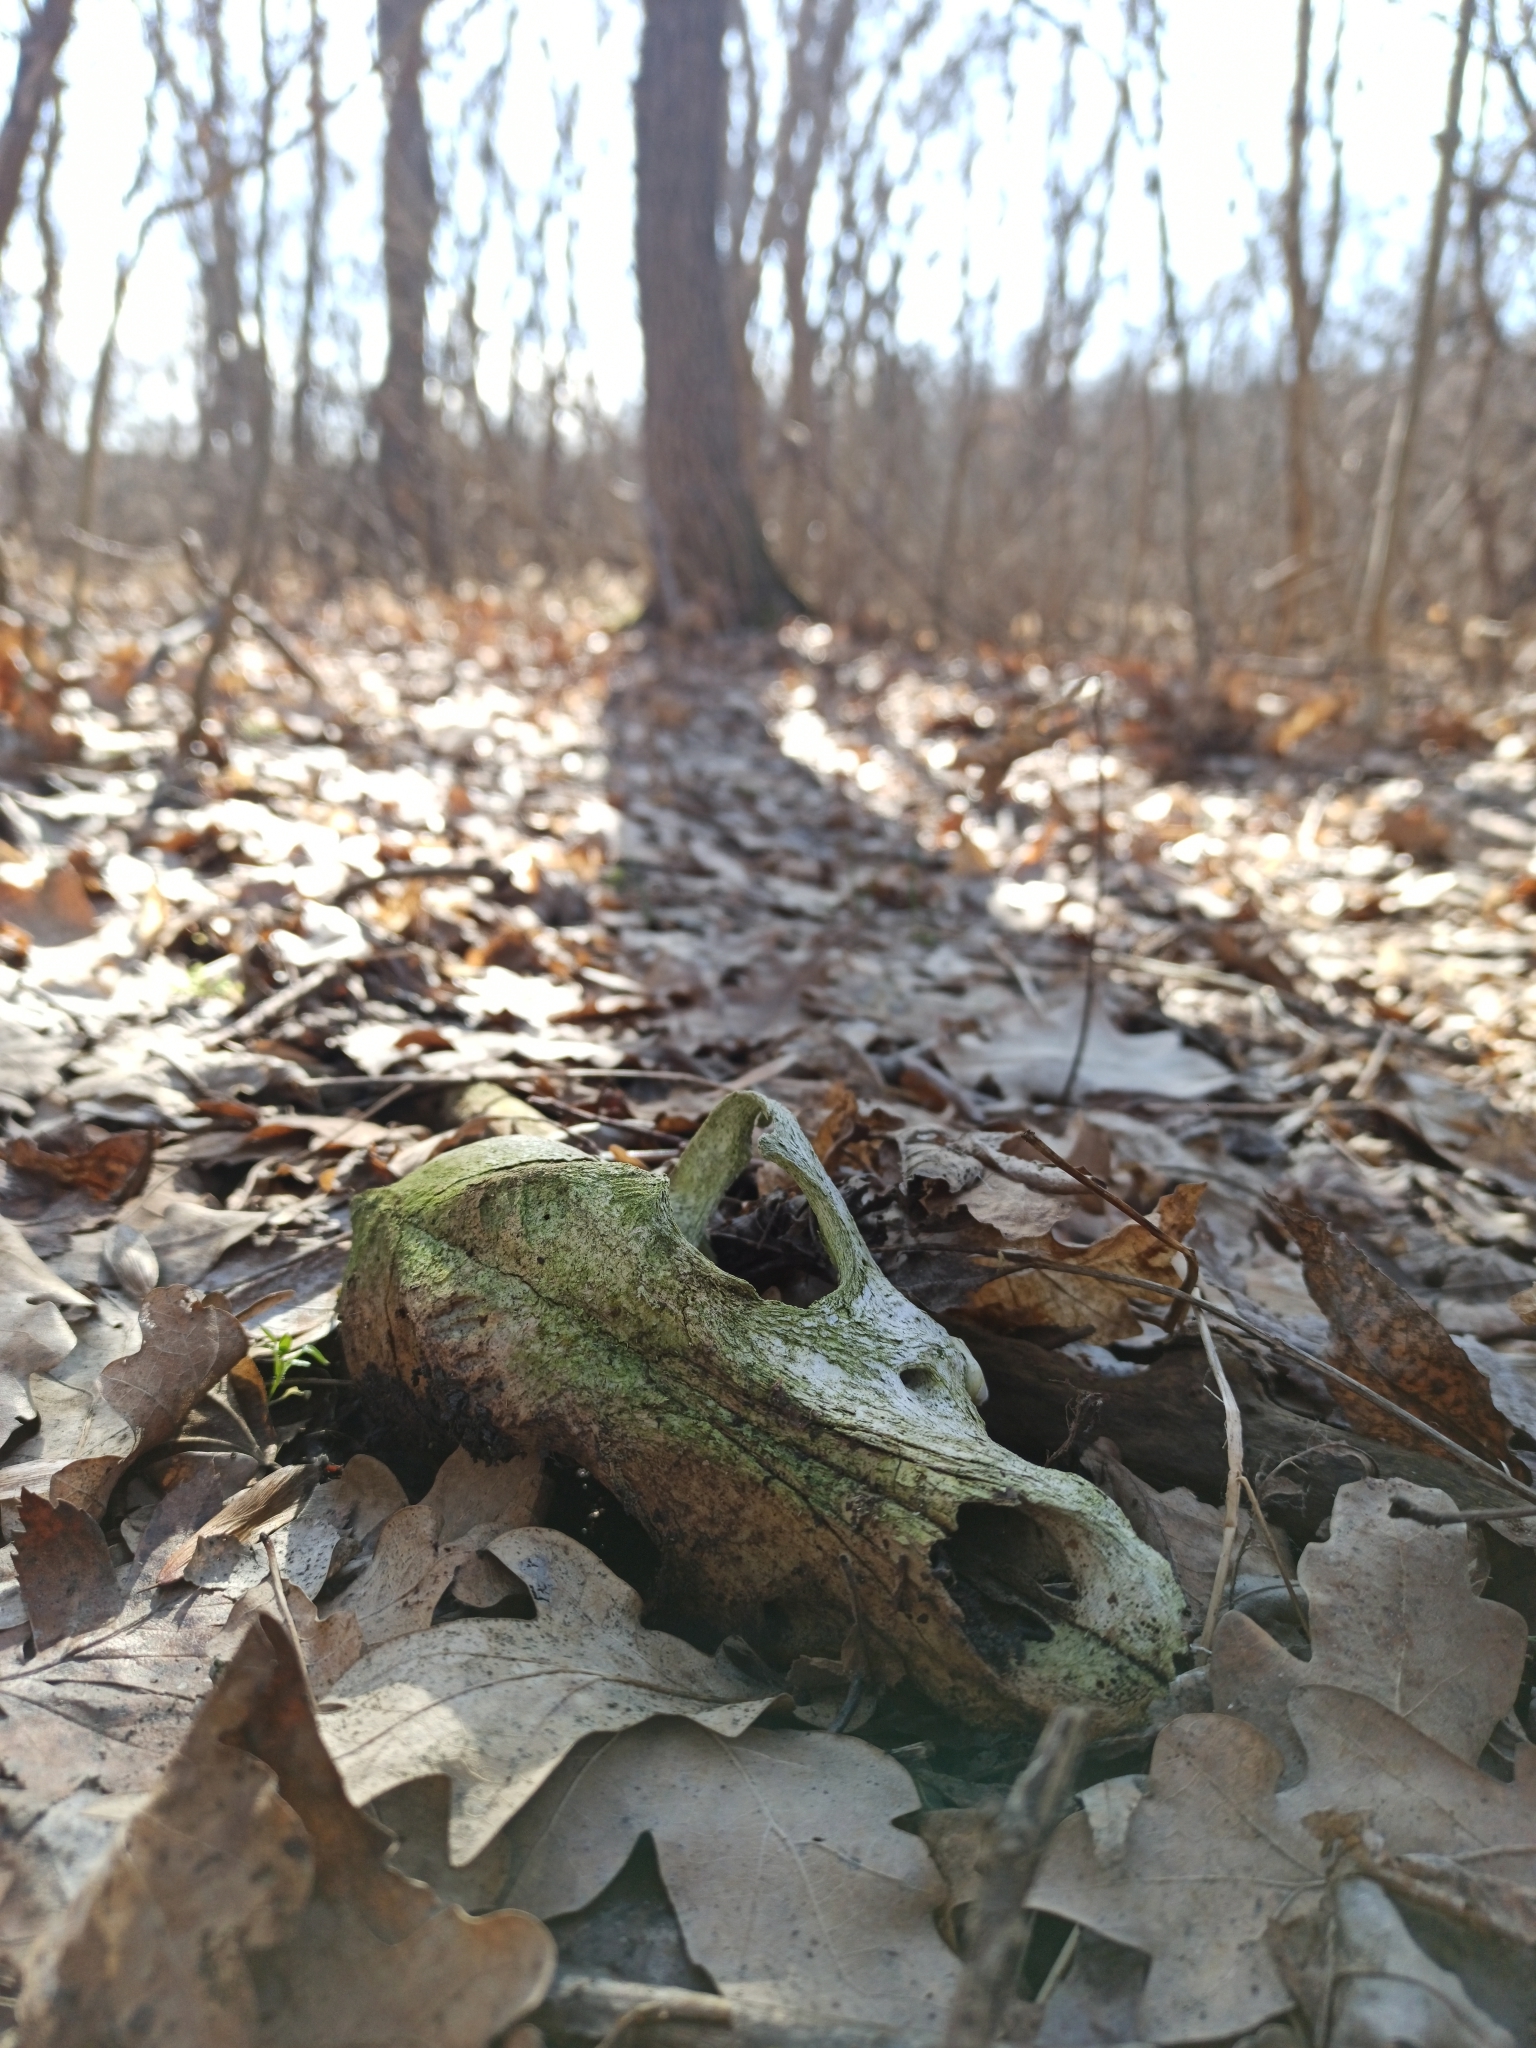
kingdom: Animalia
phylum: Chordata
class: Mammalia
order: Carnivora
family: Canidae
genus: Canis
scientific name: Canis lupus
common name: Gray wolf
